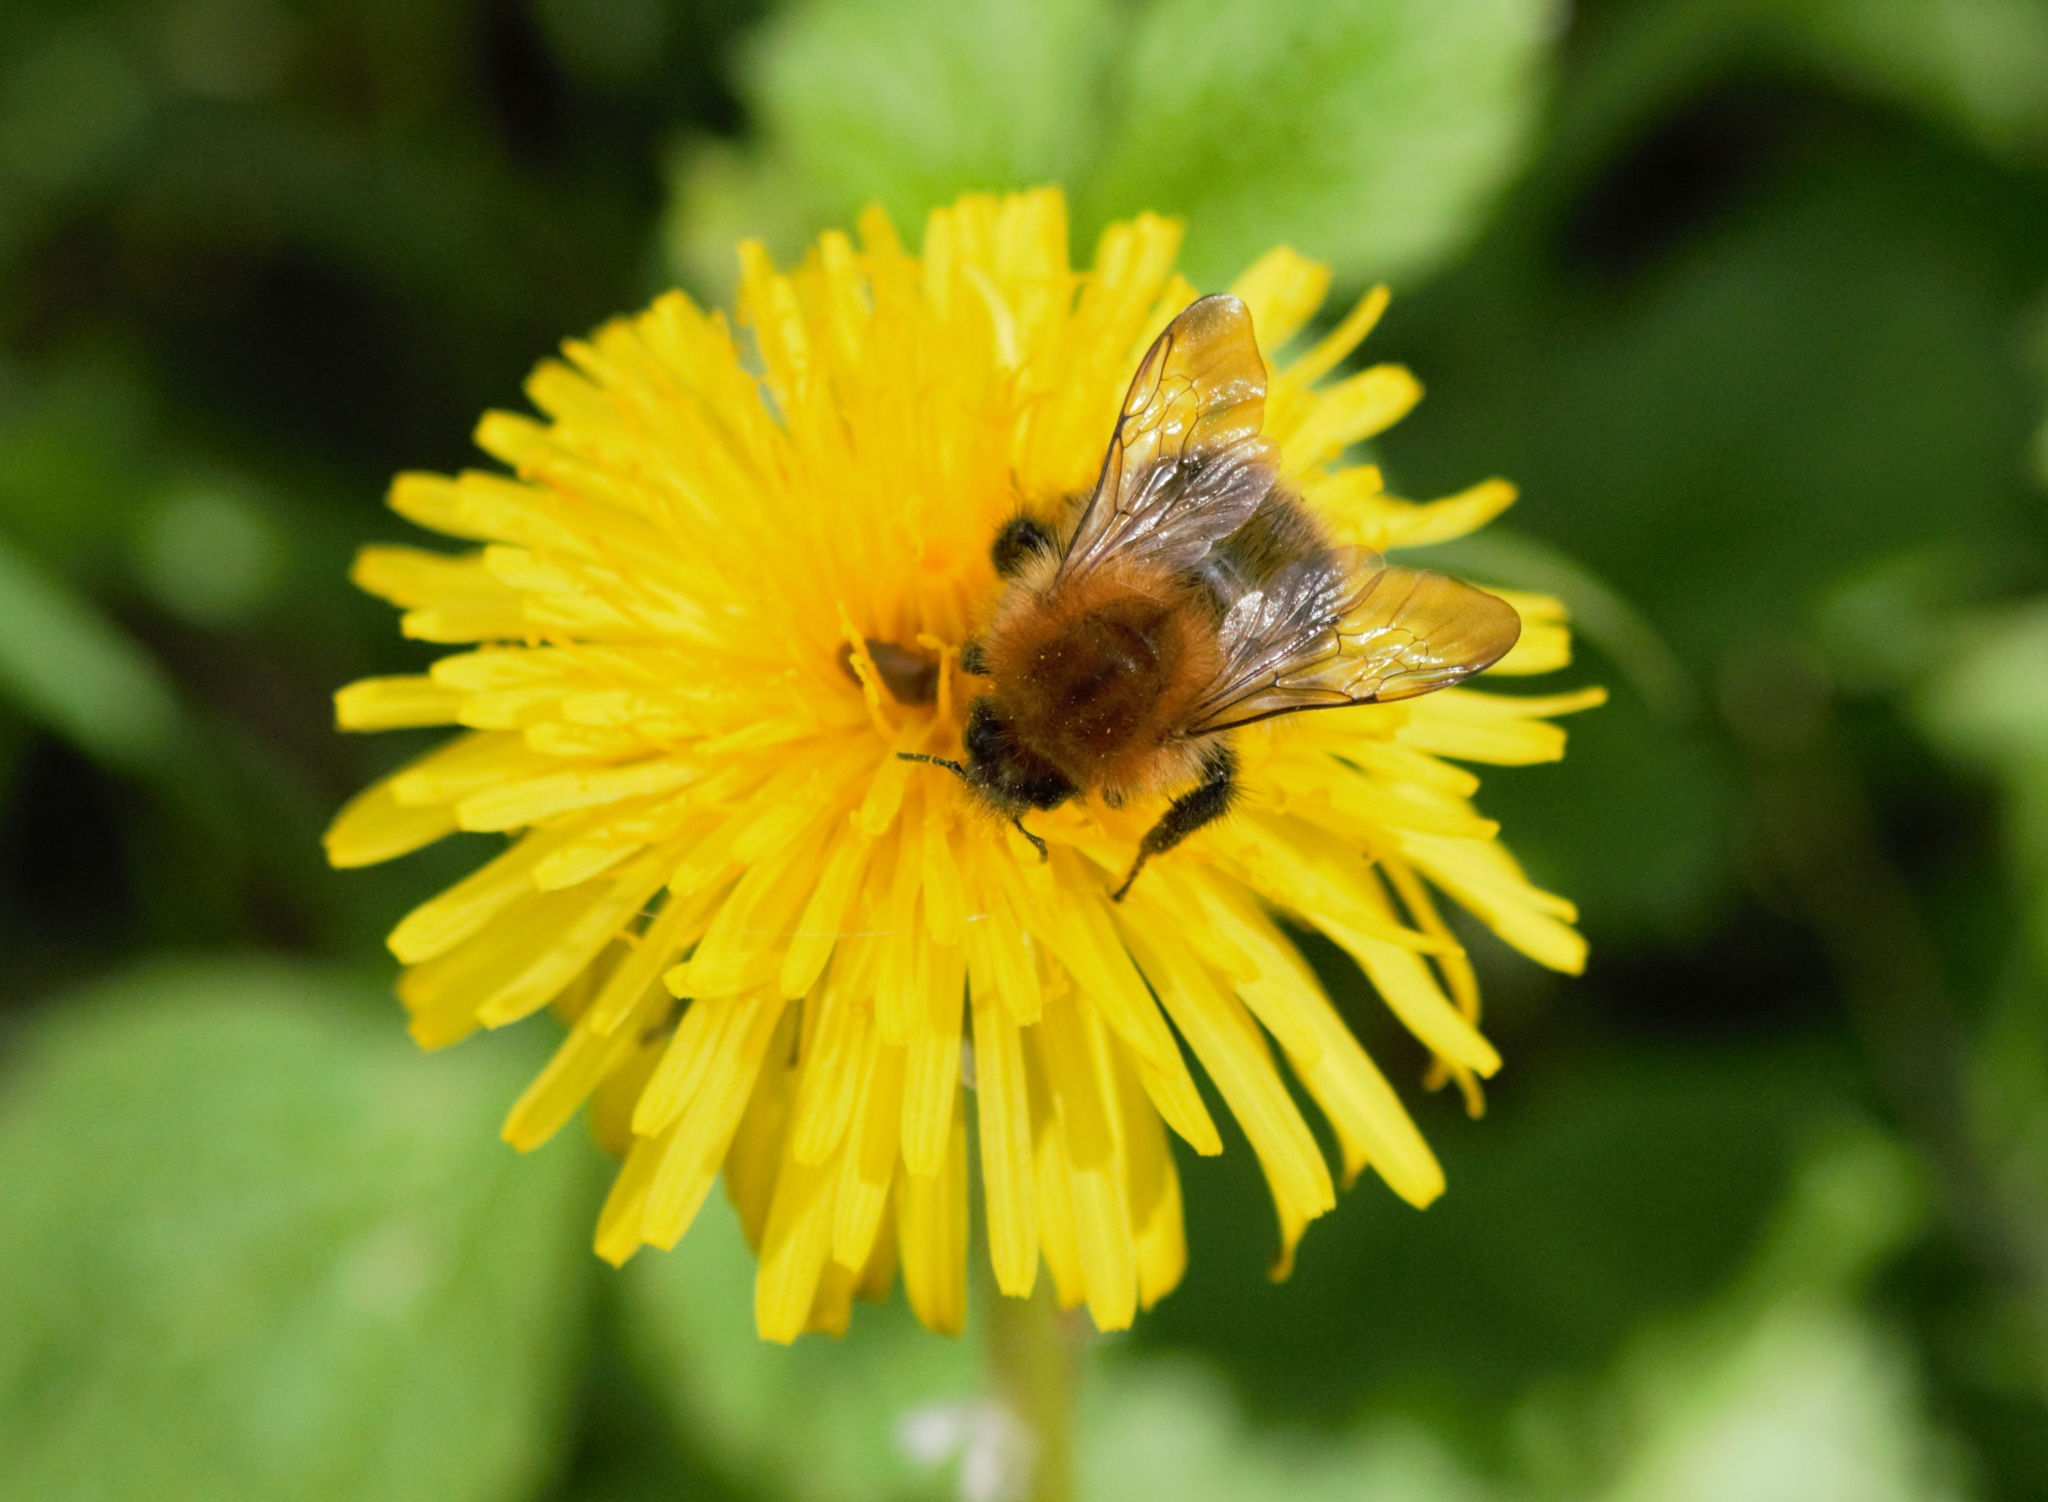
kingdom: Animalia
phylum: Arthropoda
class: Insecta
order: Hymenoptera
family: Apidae
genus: Bombus
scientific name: Bombus pascuorum
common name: Common carder bee
